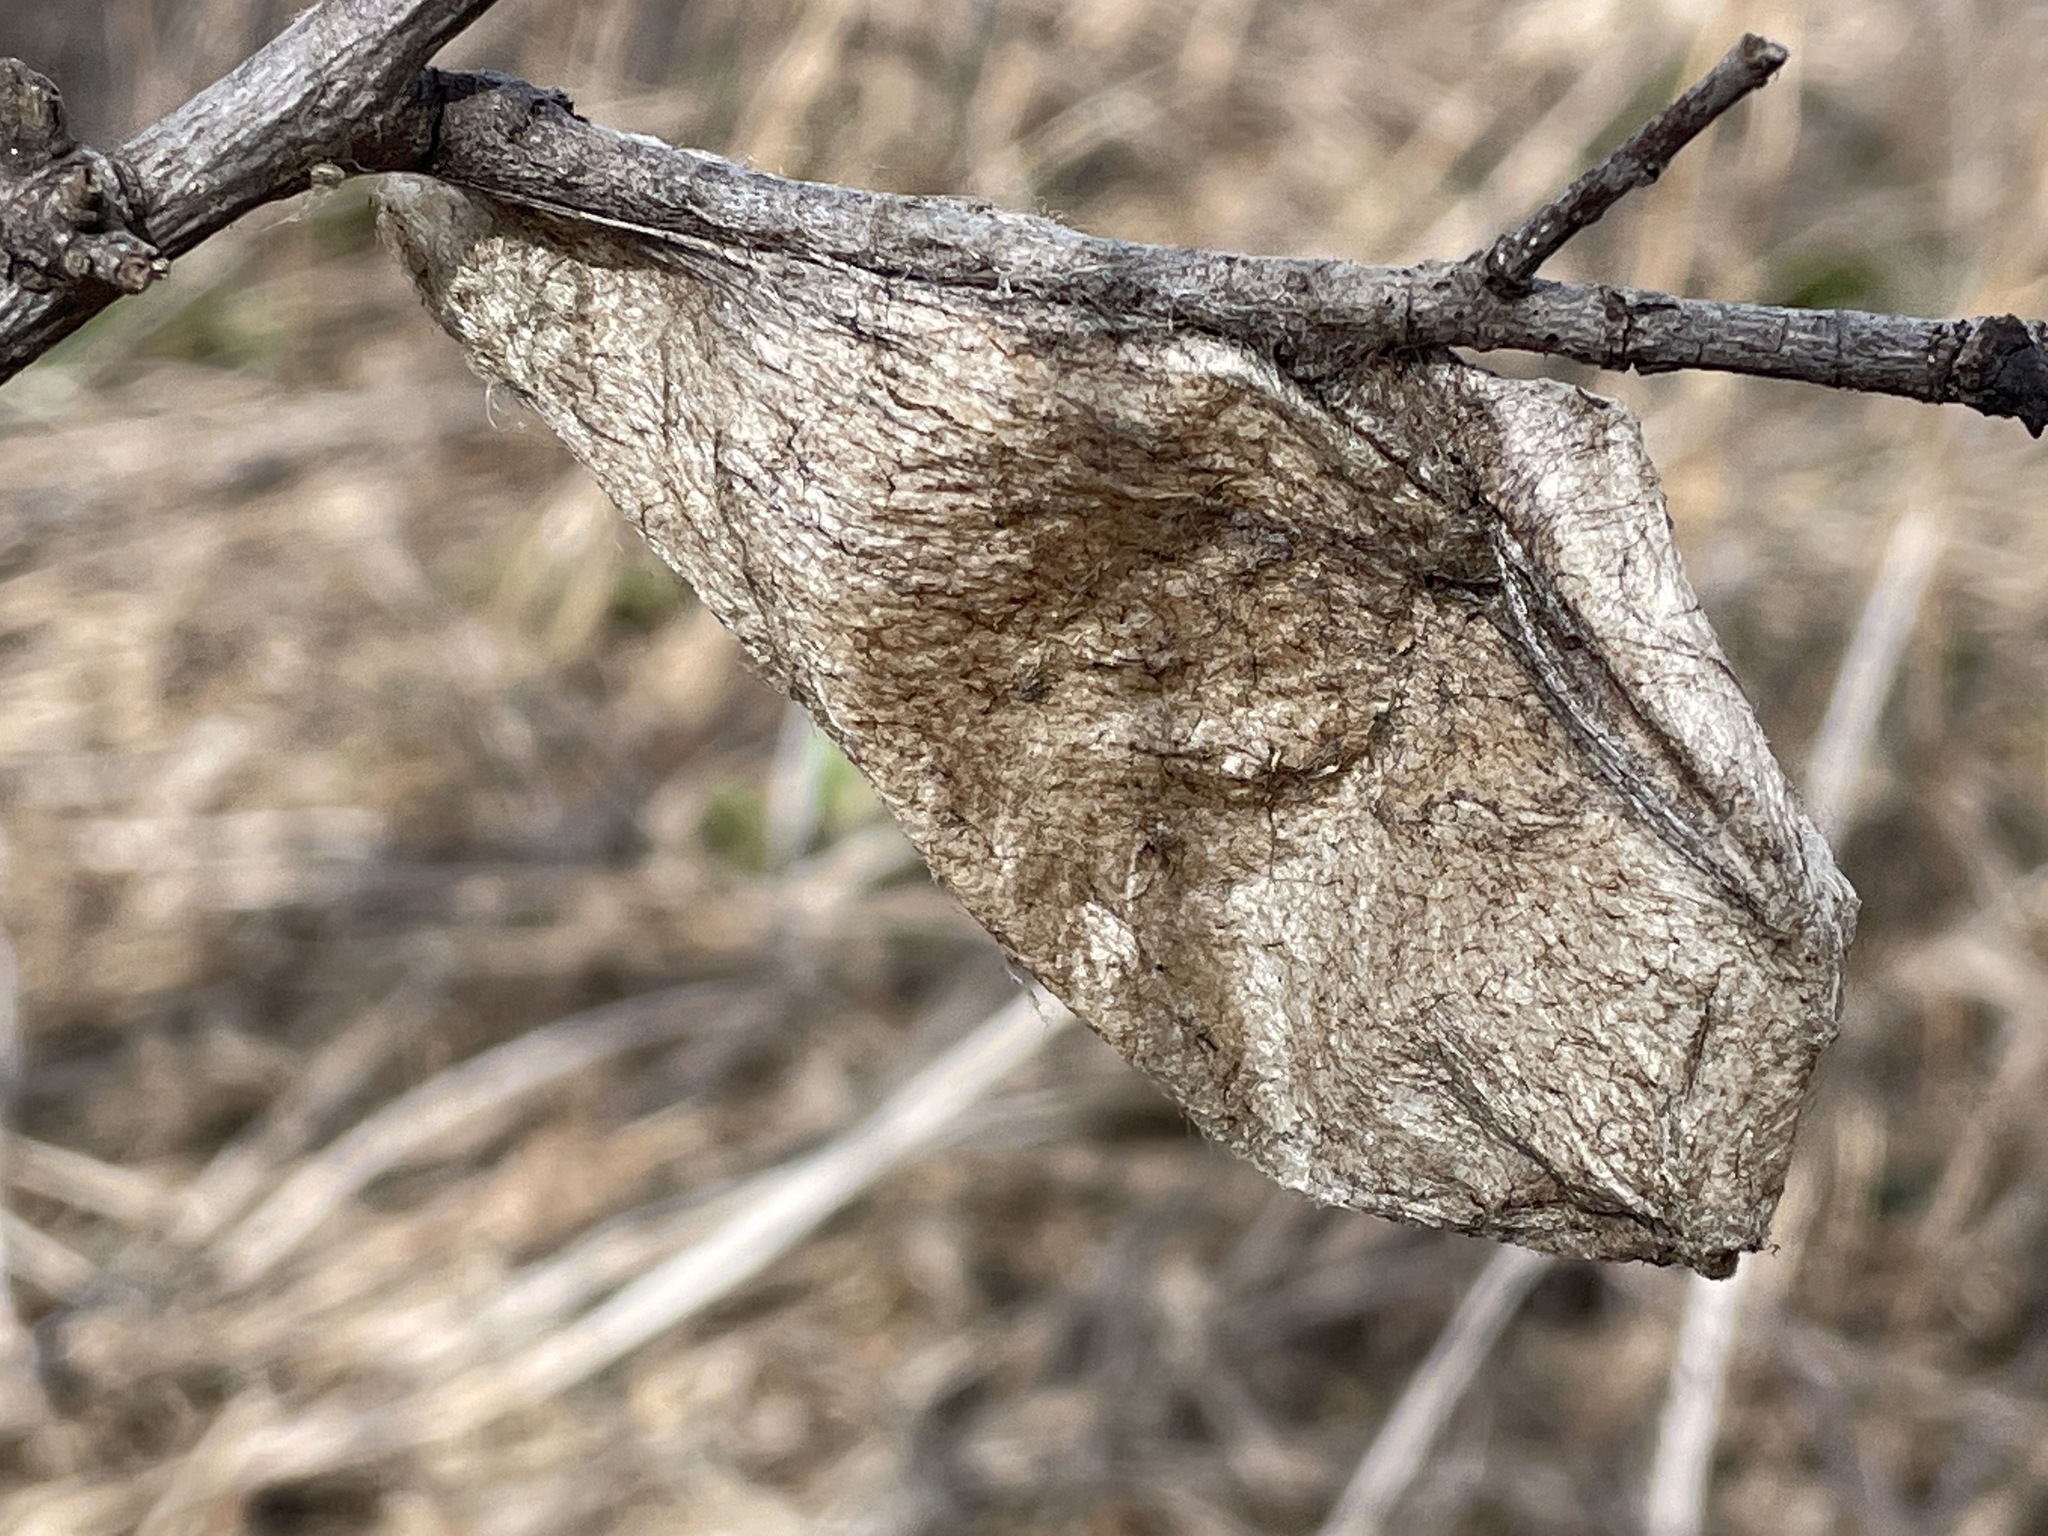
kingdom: Animalia
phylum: Arthropoda
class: Insecta
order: Lepidoptera
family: Saturniidae
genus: Hyalophora
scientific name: Hyalophora cecropia
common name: Cecropia silkmoth
